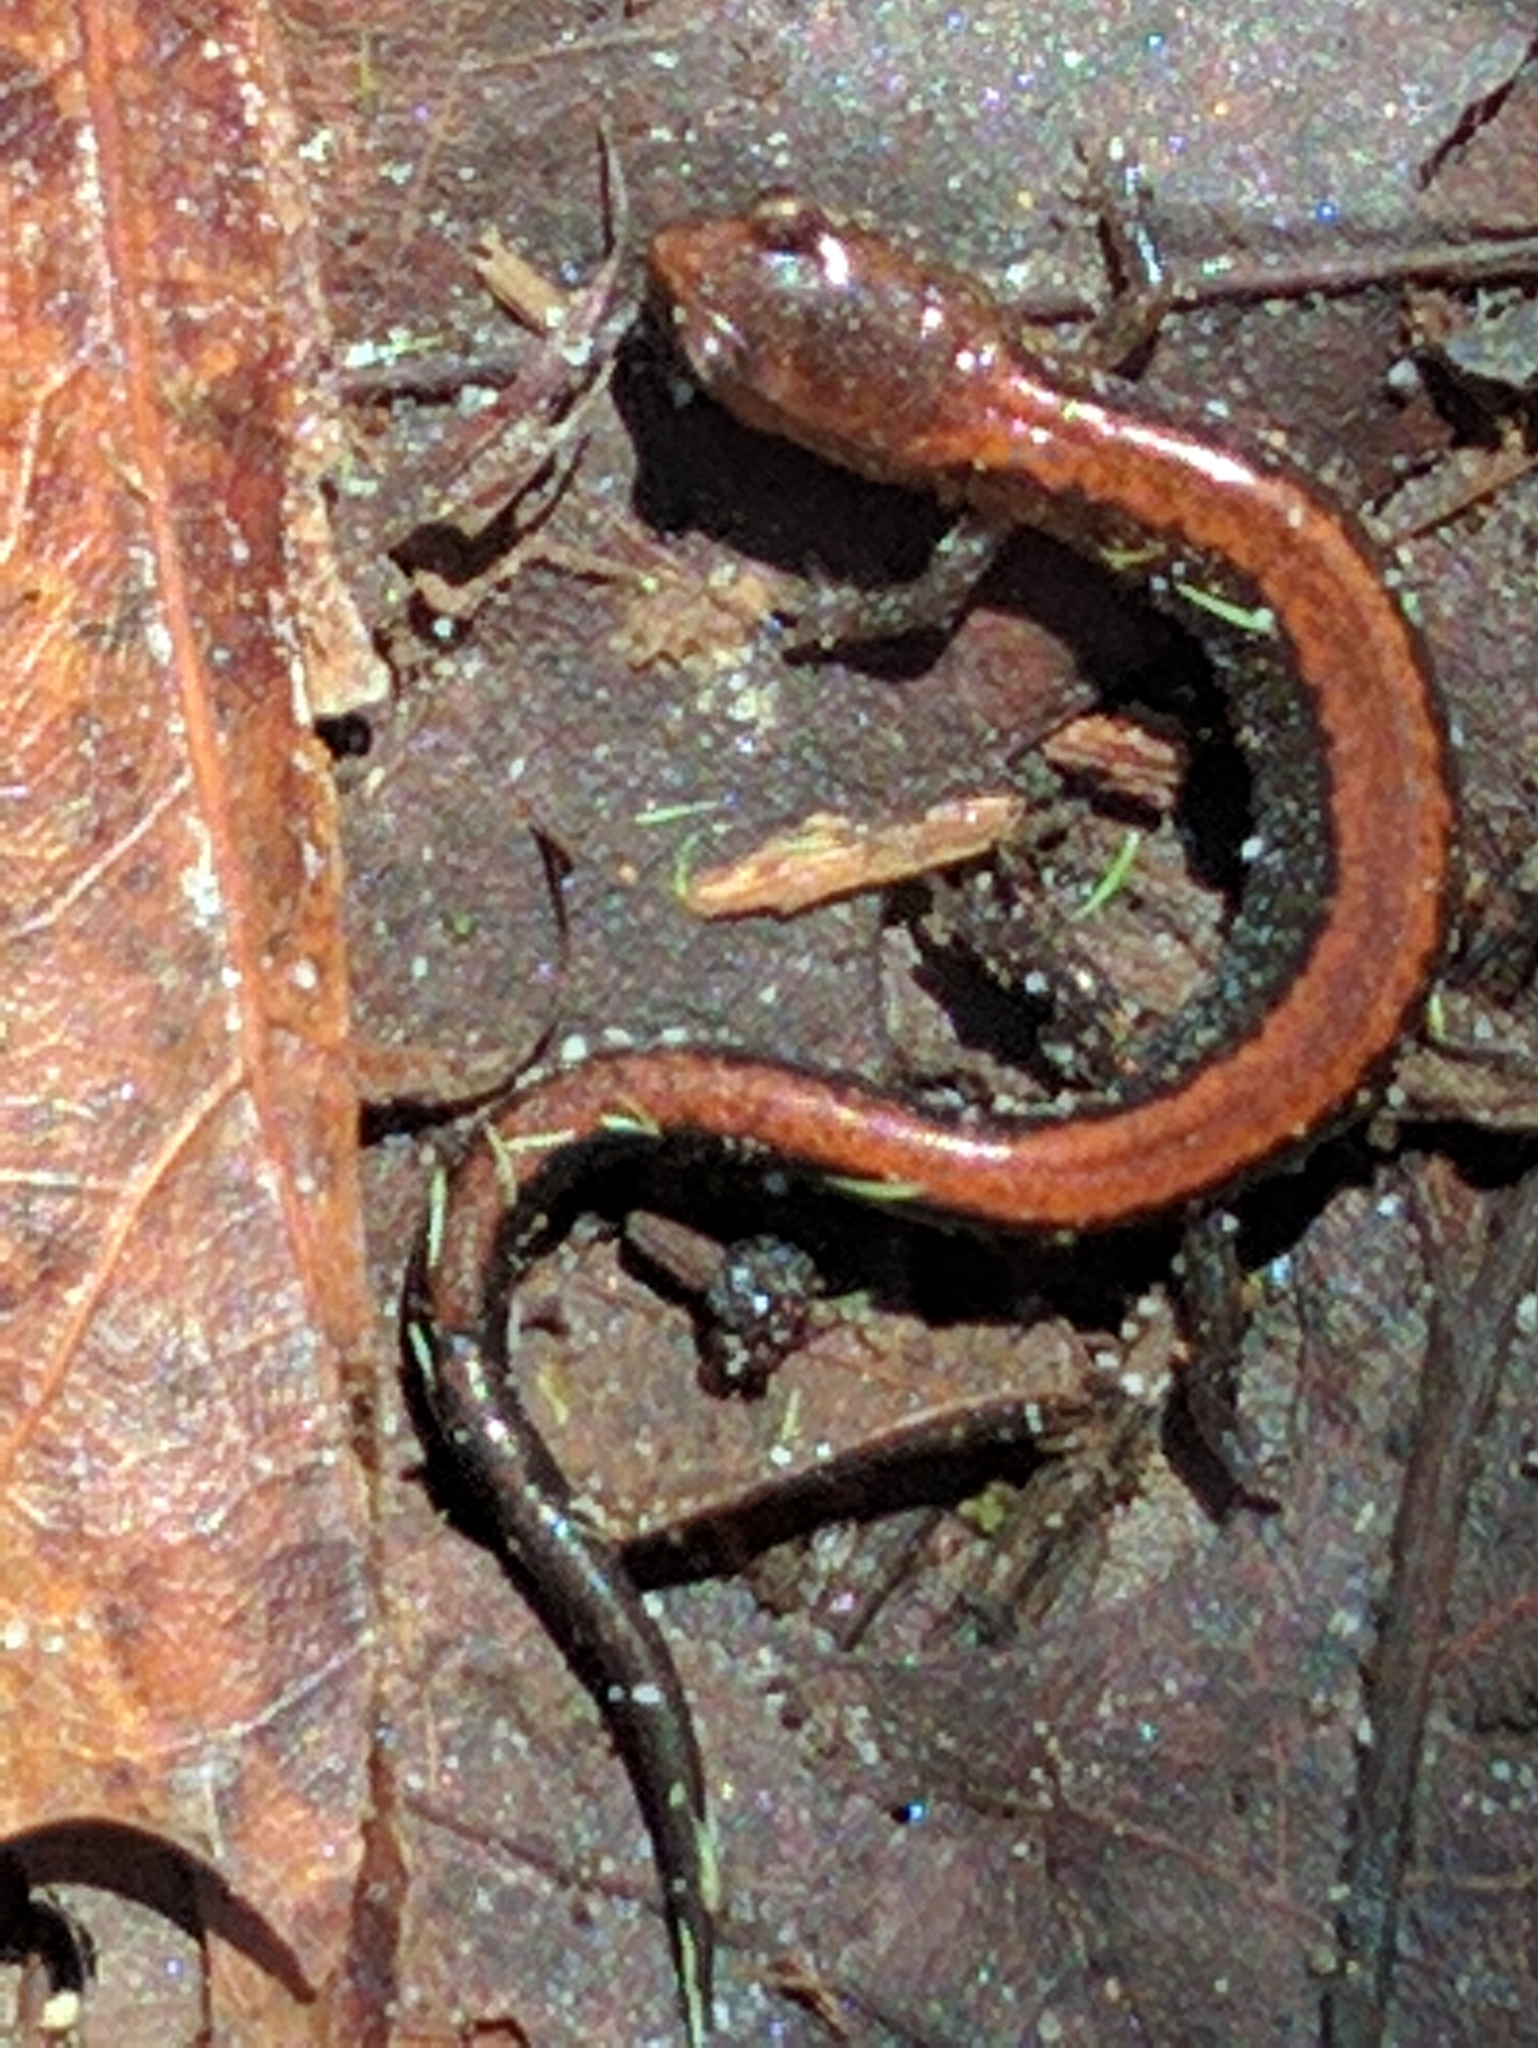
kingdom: Animalia
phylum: Chordata
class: Amphibia
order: Caudata
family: Plethodontidae
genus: Plethodon
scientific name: Plethodon cinereus
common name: Redback salamander
